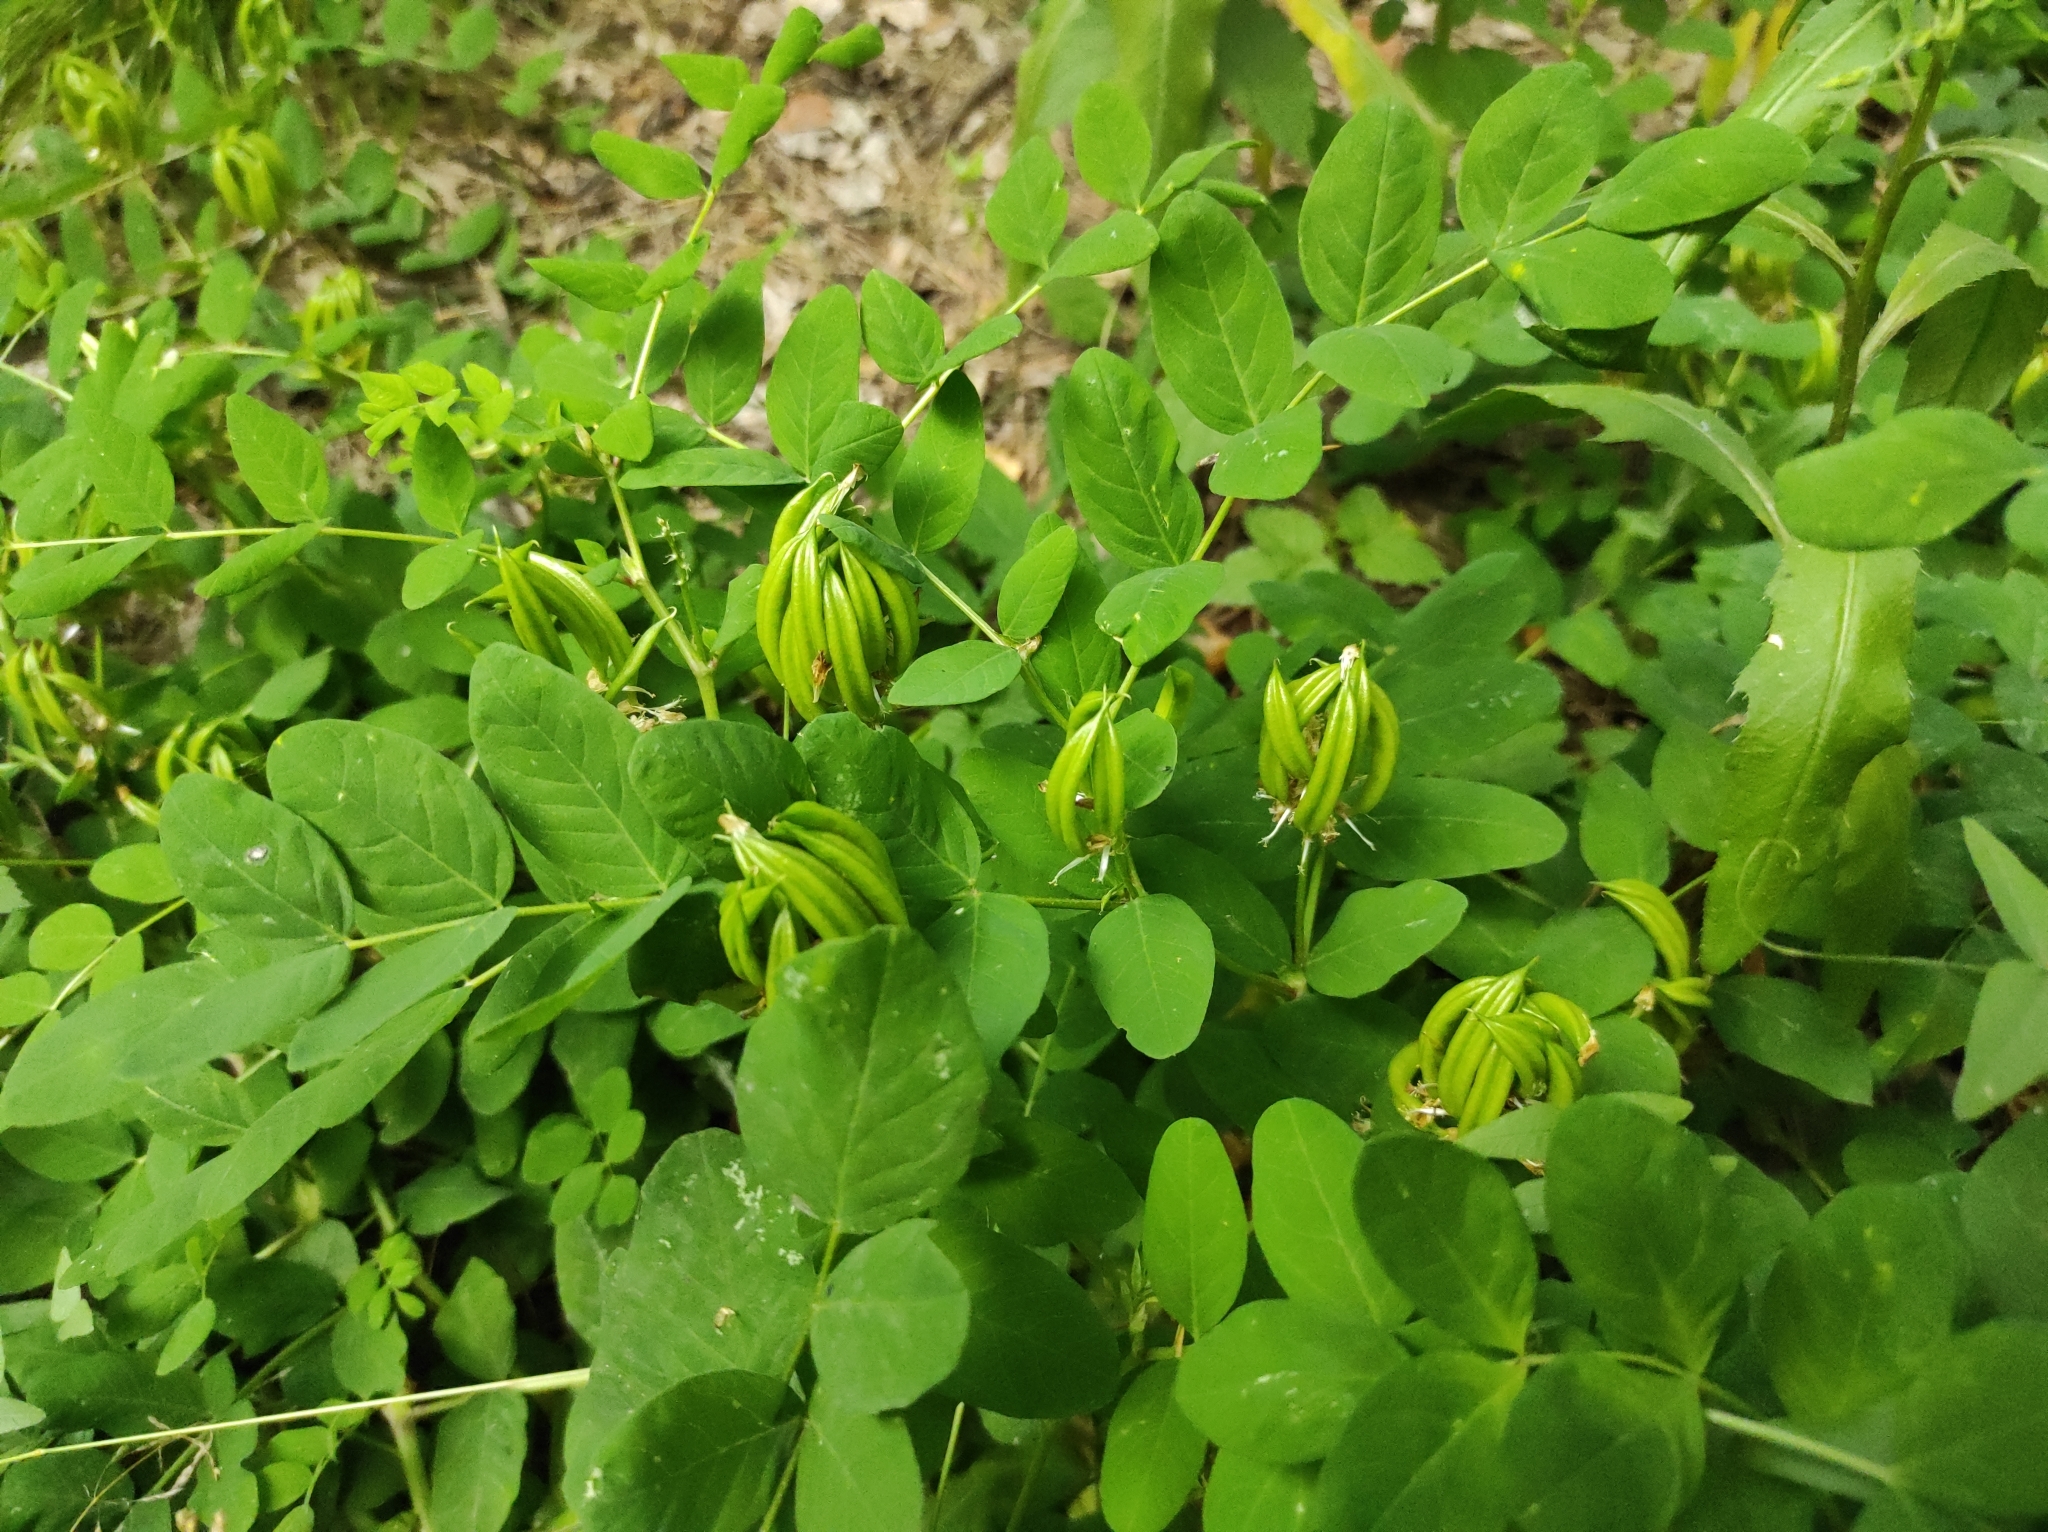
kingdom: Plantae
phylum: Tracheophyta
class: Magnoliopsida
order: Fabales
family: Fabaceae
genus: Astragalus
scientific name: Astragalus glycyphyllos
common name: Wild liquorice
